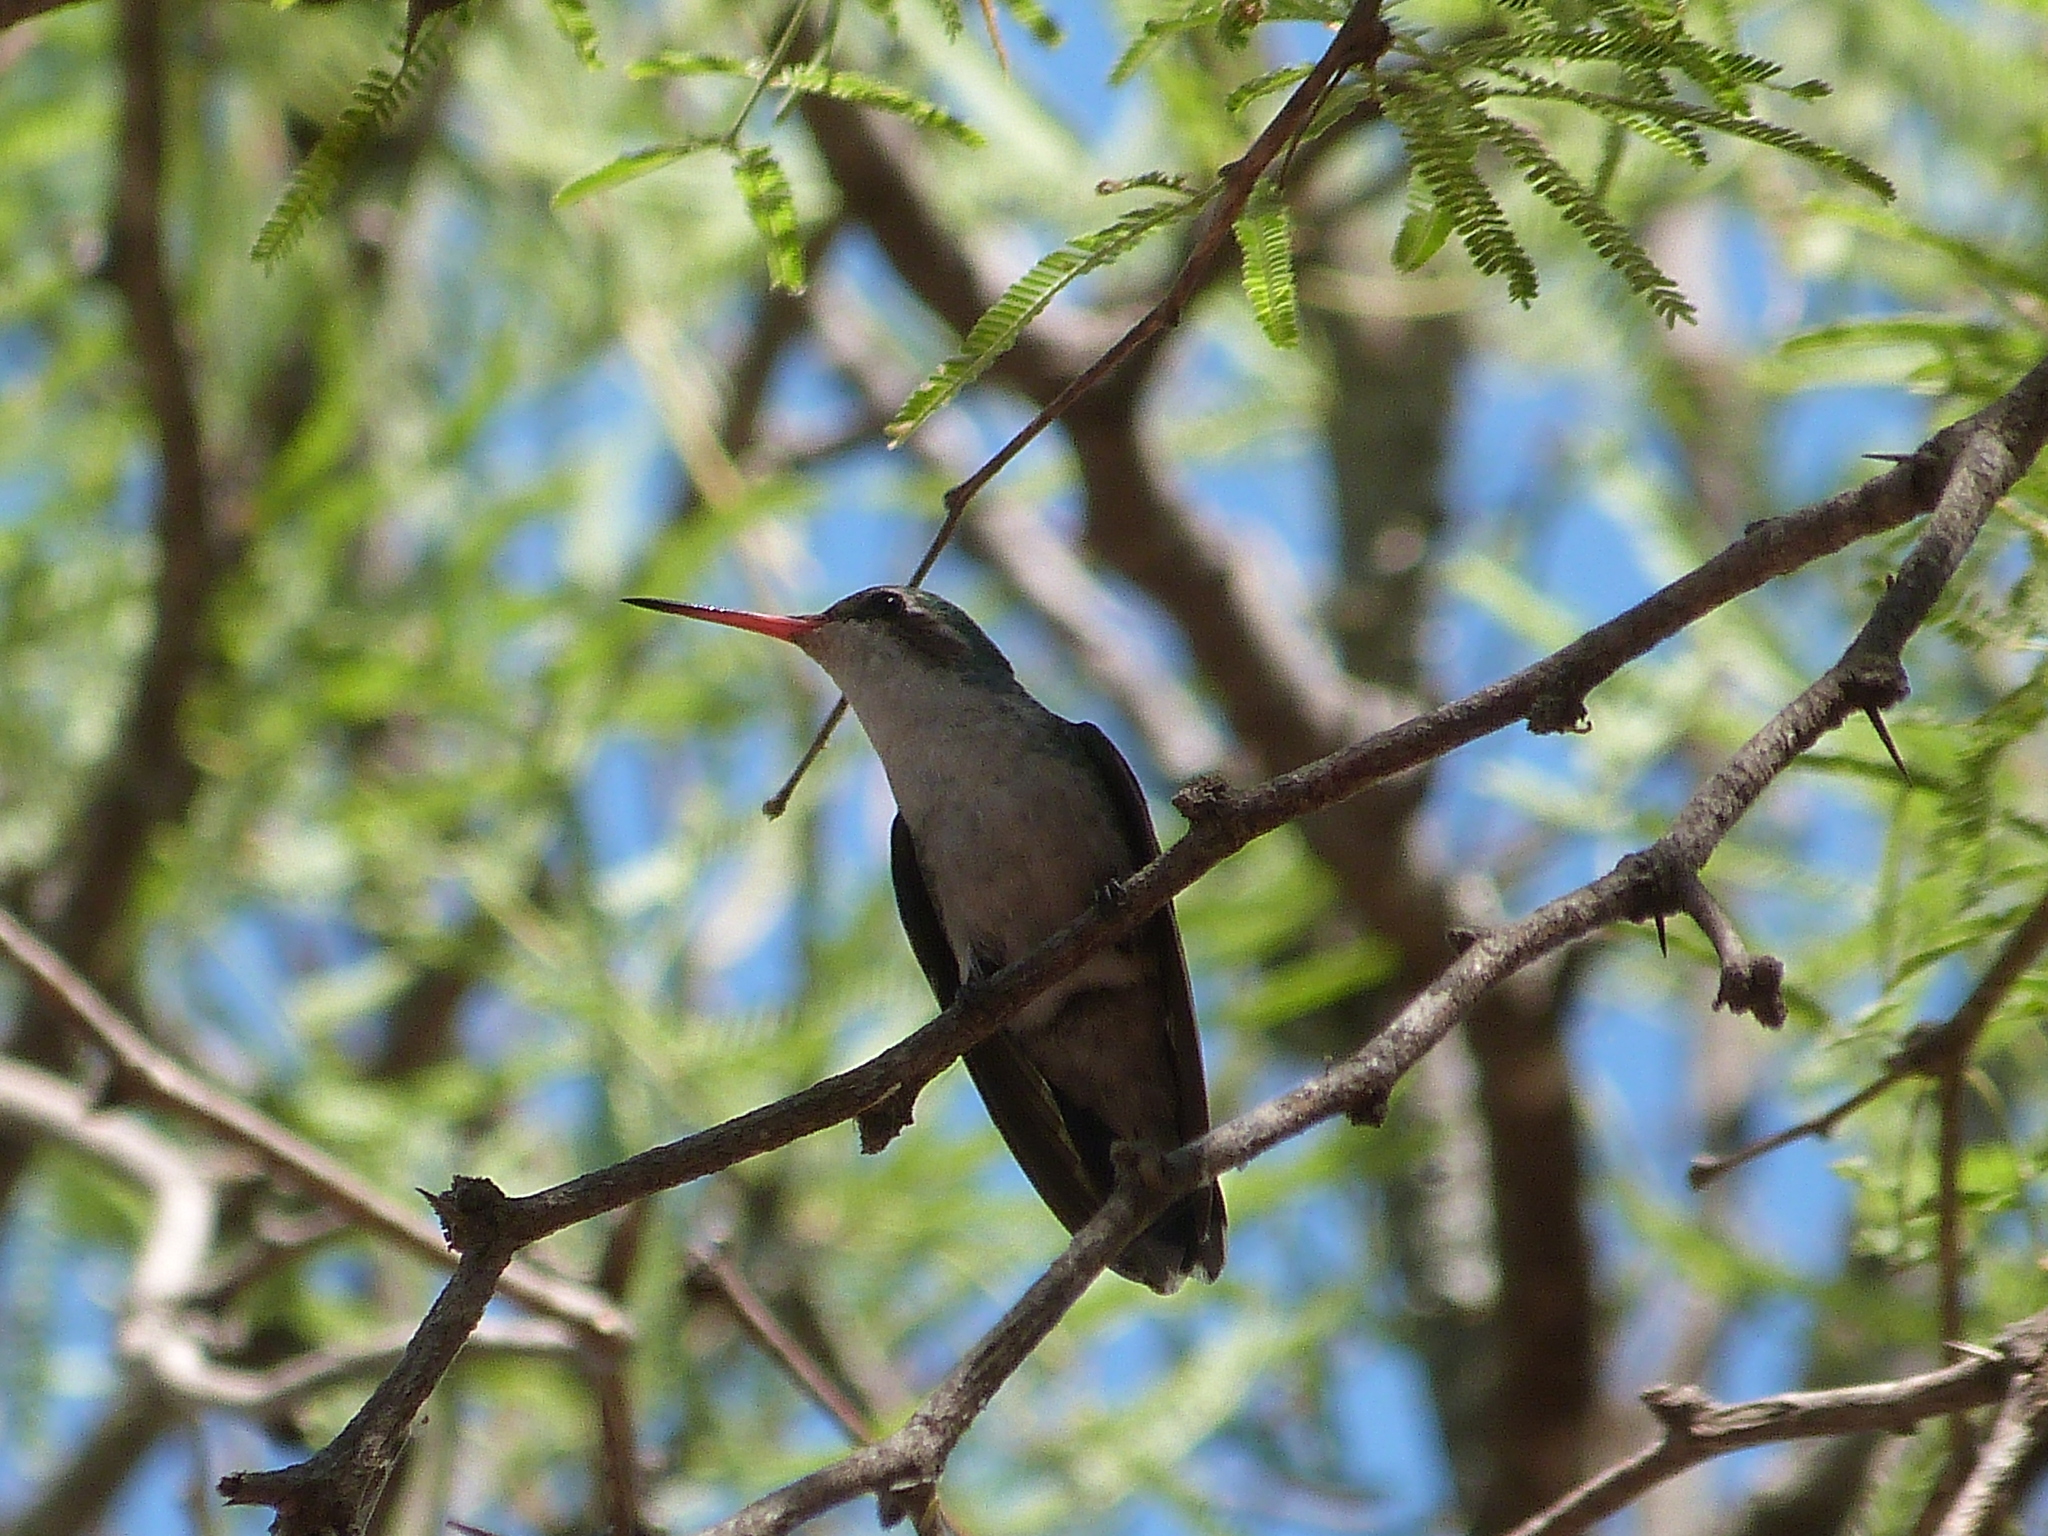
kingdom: Animalia
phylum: Chordata
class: Aves
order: Apodiformes
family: Trochilidae
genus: Chlorostilbon
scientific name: Chlorostilbon lucidus
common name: Glittering-bellied emerald
